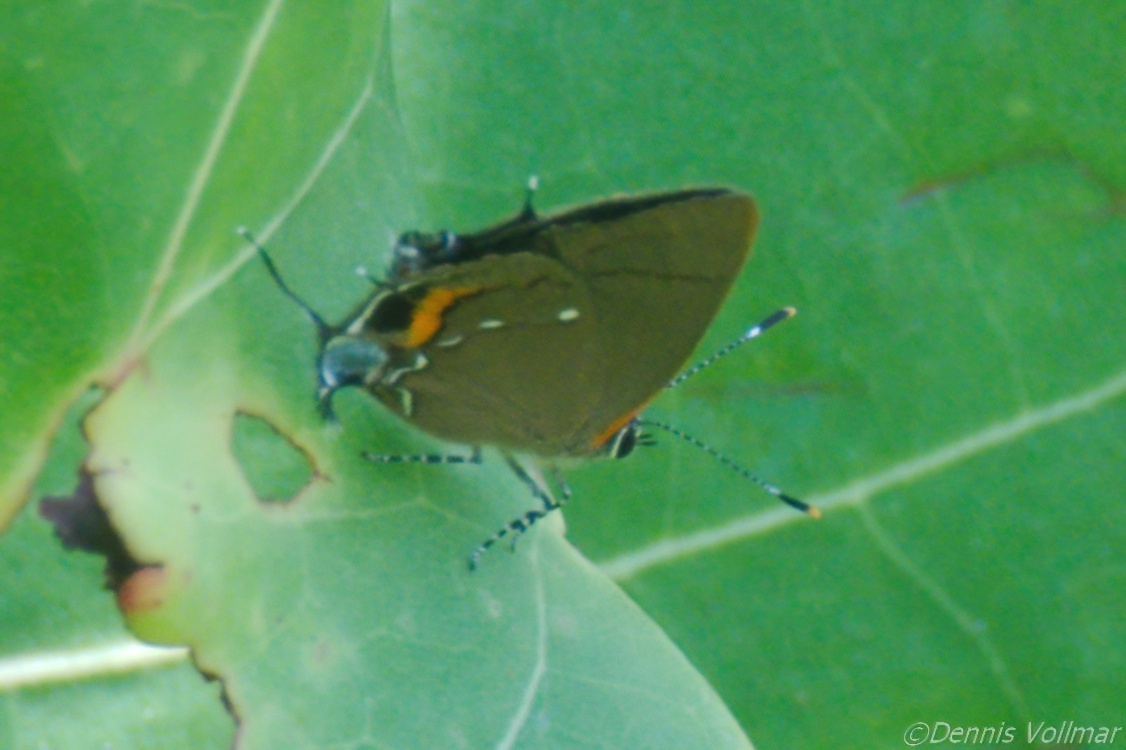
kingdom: Animalia
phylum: Arthropoda
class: Insecta
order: Lepidoptera
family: Lycaenidae
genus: Thecla
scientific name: Thecla angelia
